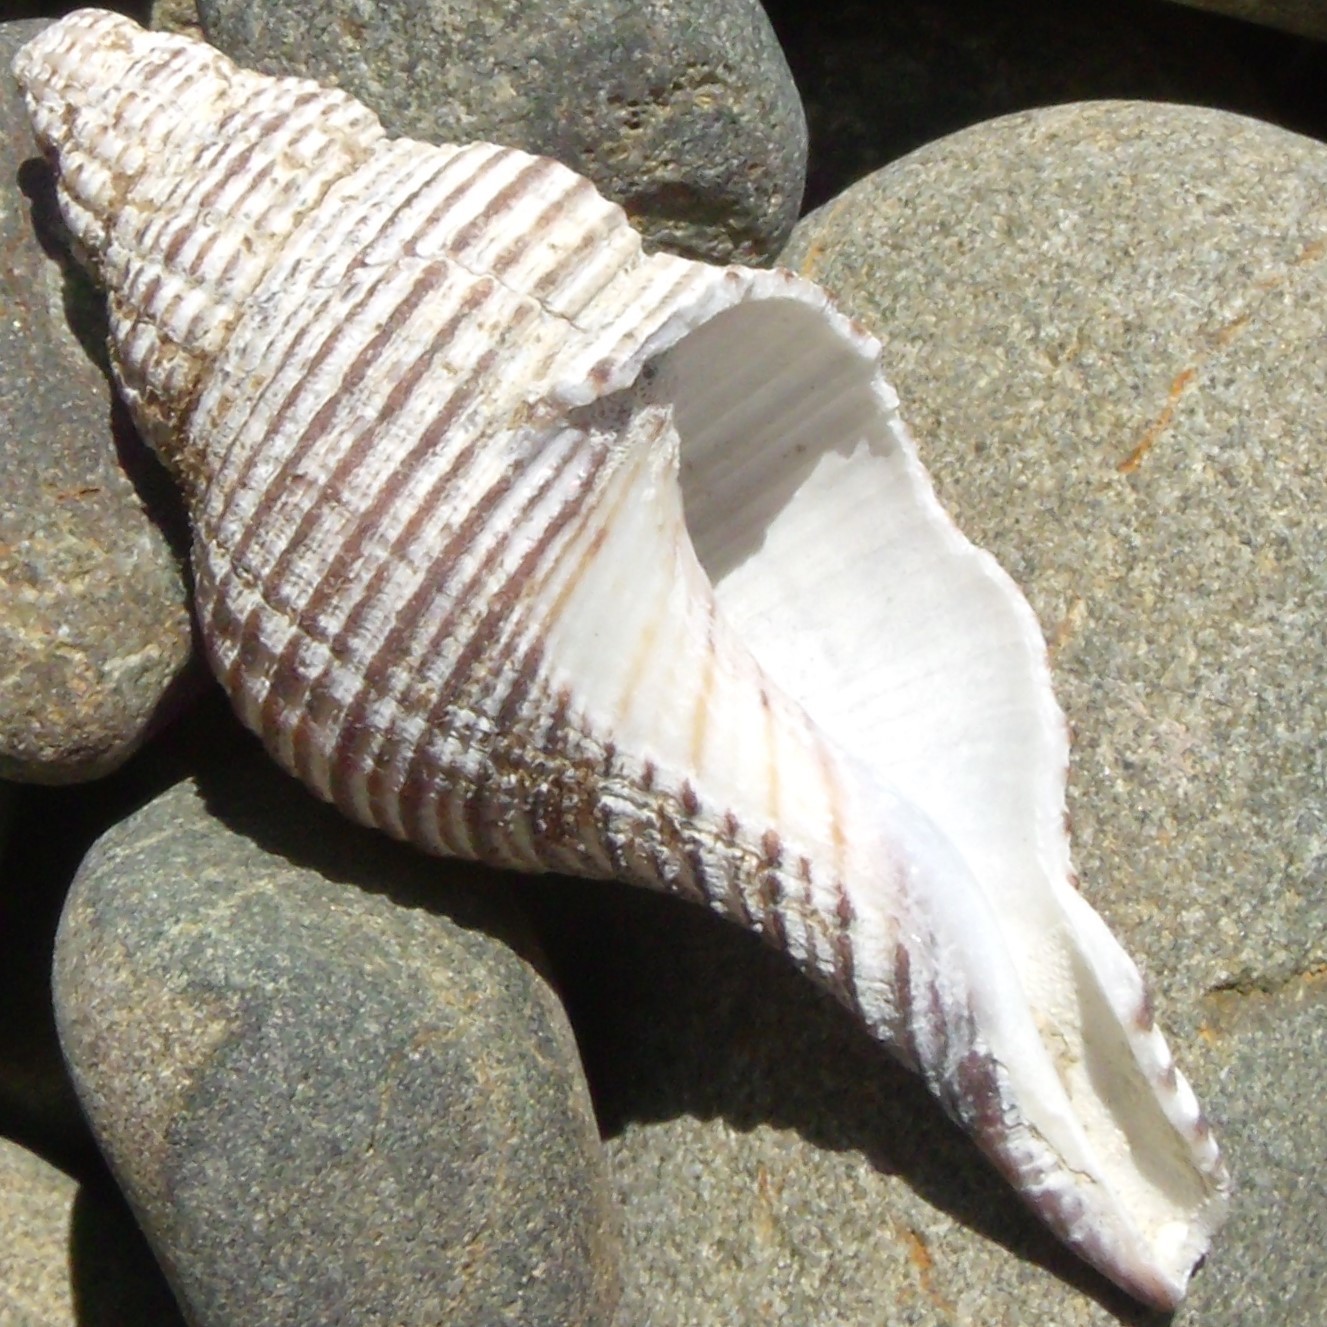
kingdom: Animalia
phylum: Mollusca
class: Gastropoda
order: Neogastropoda
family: Austrosiphonidae
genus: Penion
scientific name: Penion sulcatus
